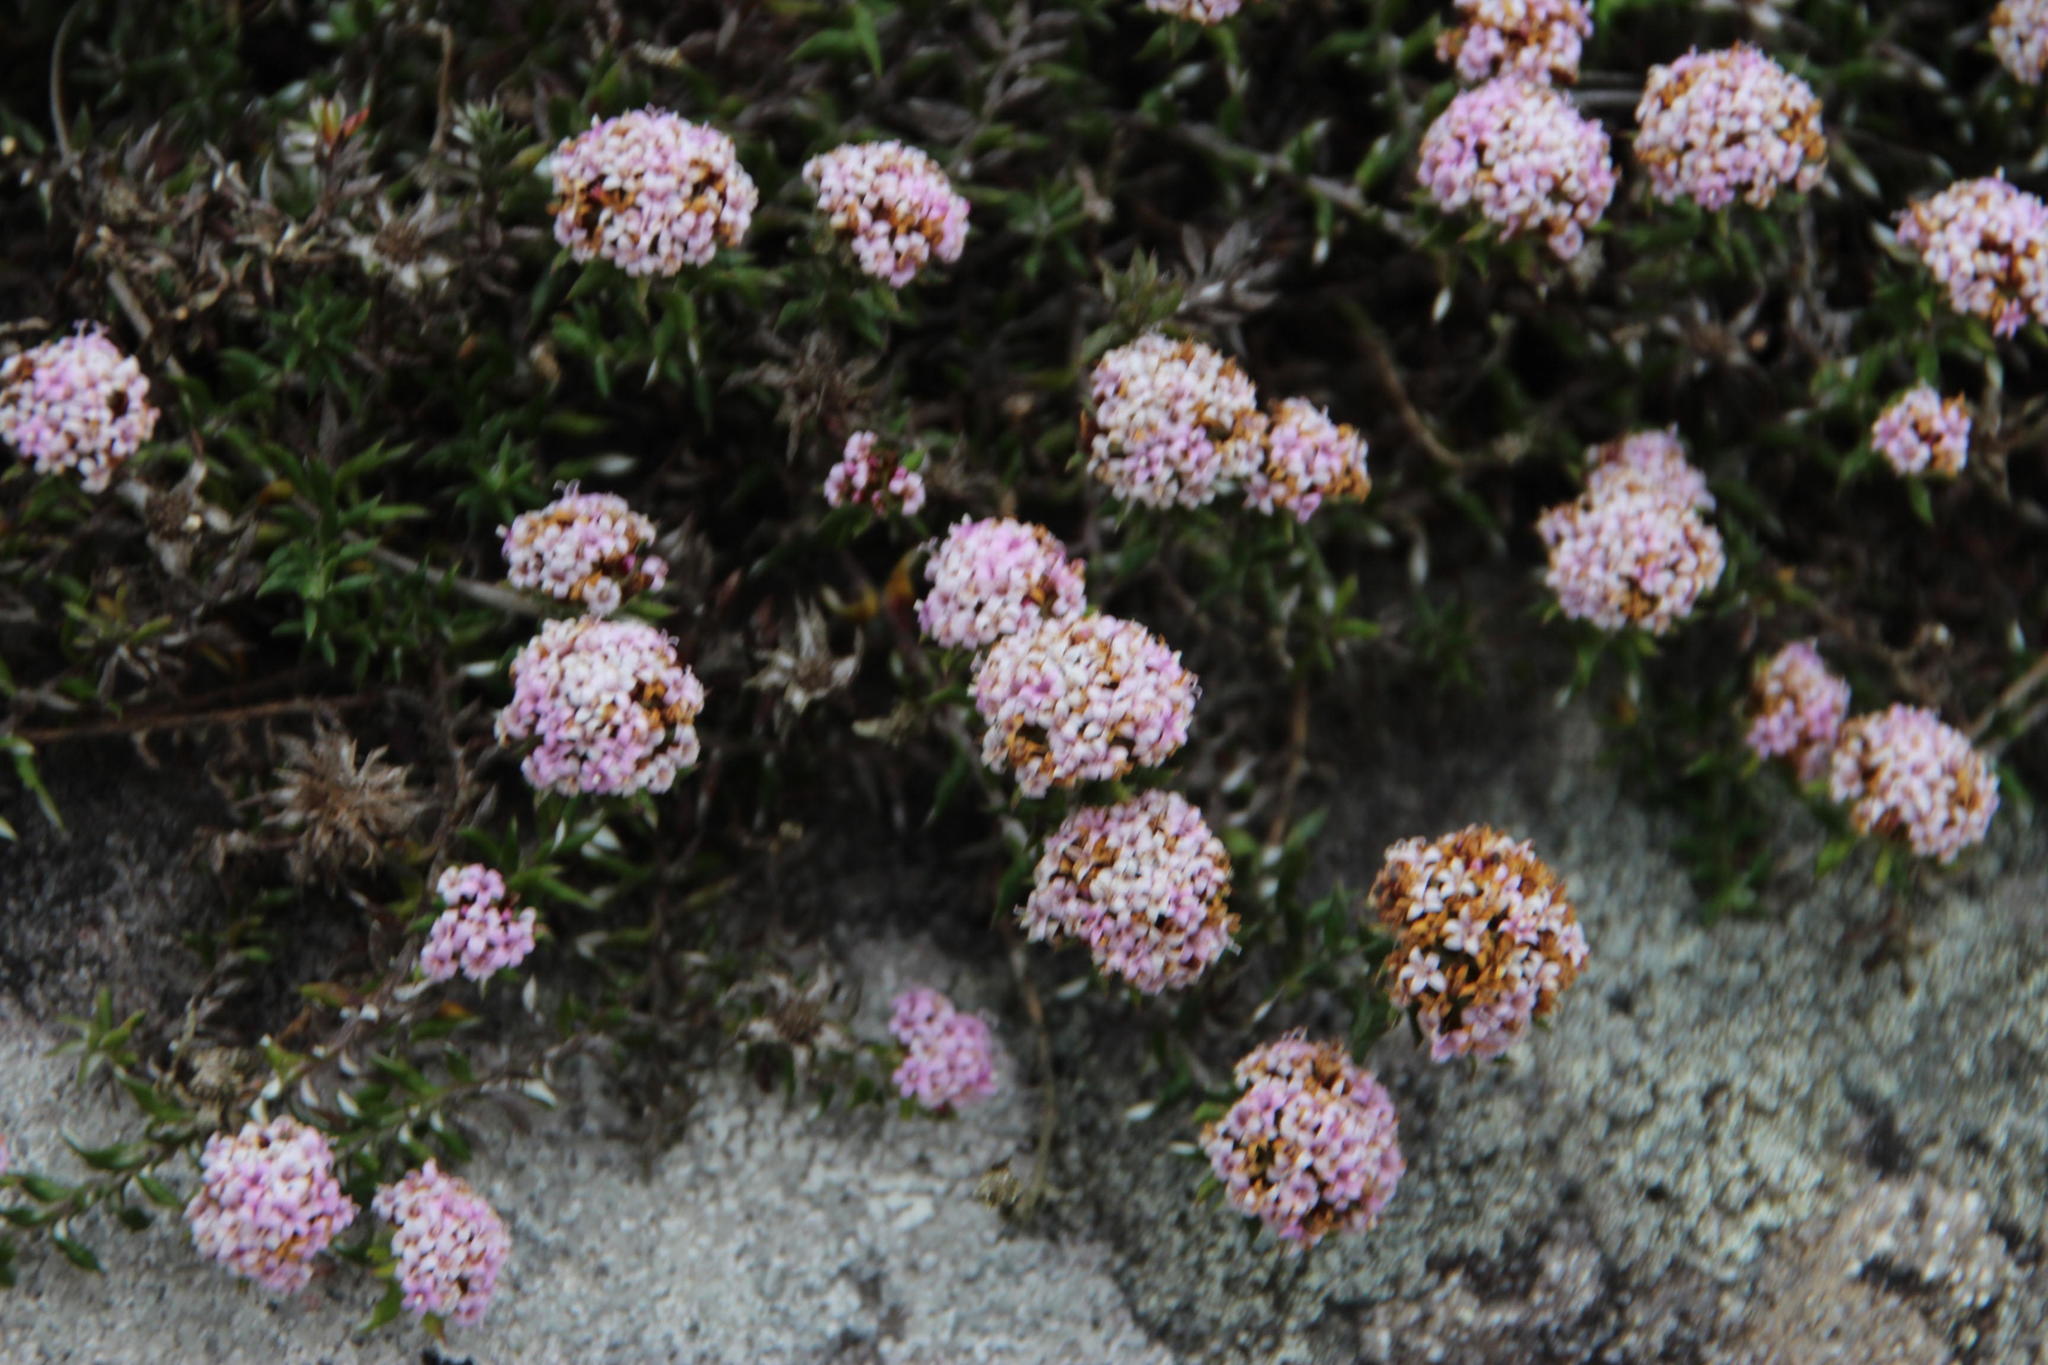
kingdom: Plantae
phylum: Tracheophyta
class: Magnoliopsida
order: Asterales
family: Asteraceae
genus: Stoebe
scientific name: Stoebe prostrata
